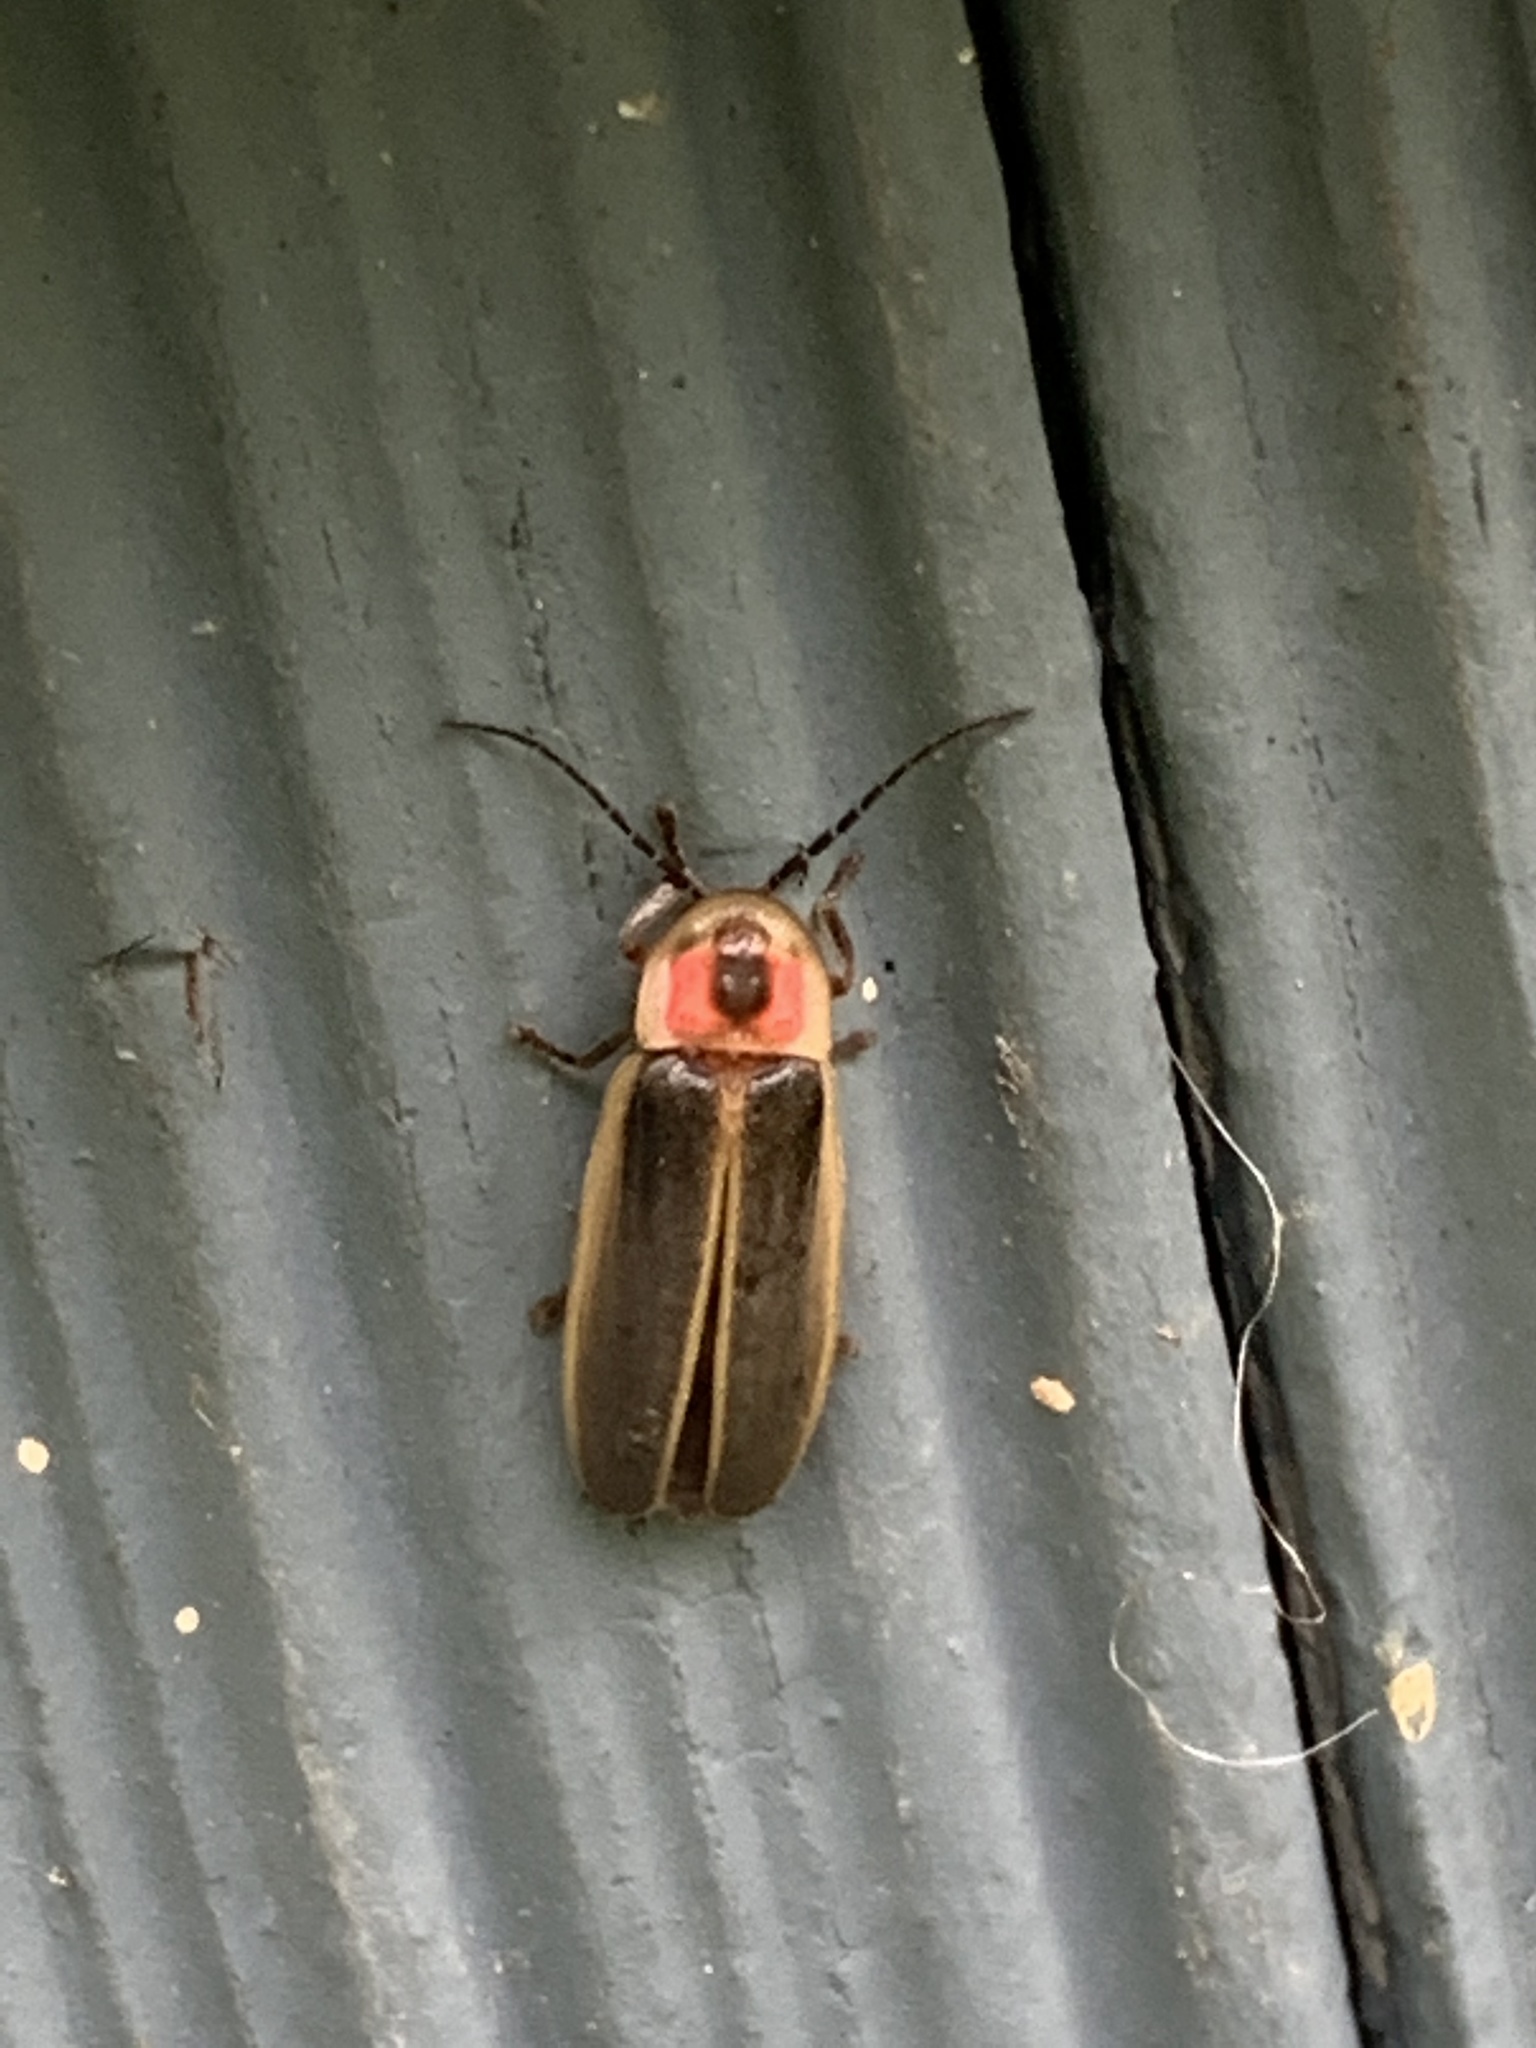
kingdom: Animalia
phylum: Arthropoda
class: Insecta
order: Coleoptera
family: Lampyridae
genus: Photinus
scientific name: Photinus pyralis
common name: Big dipper firefly
